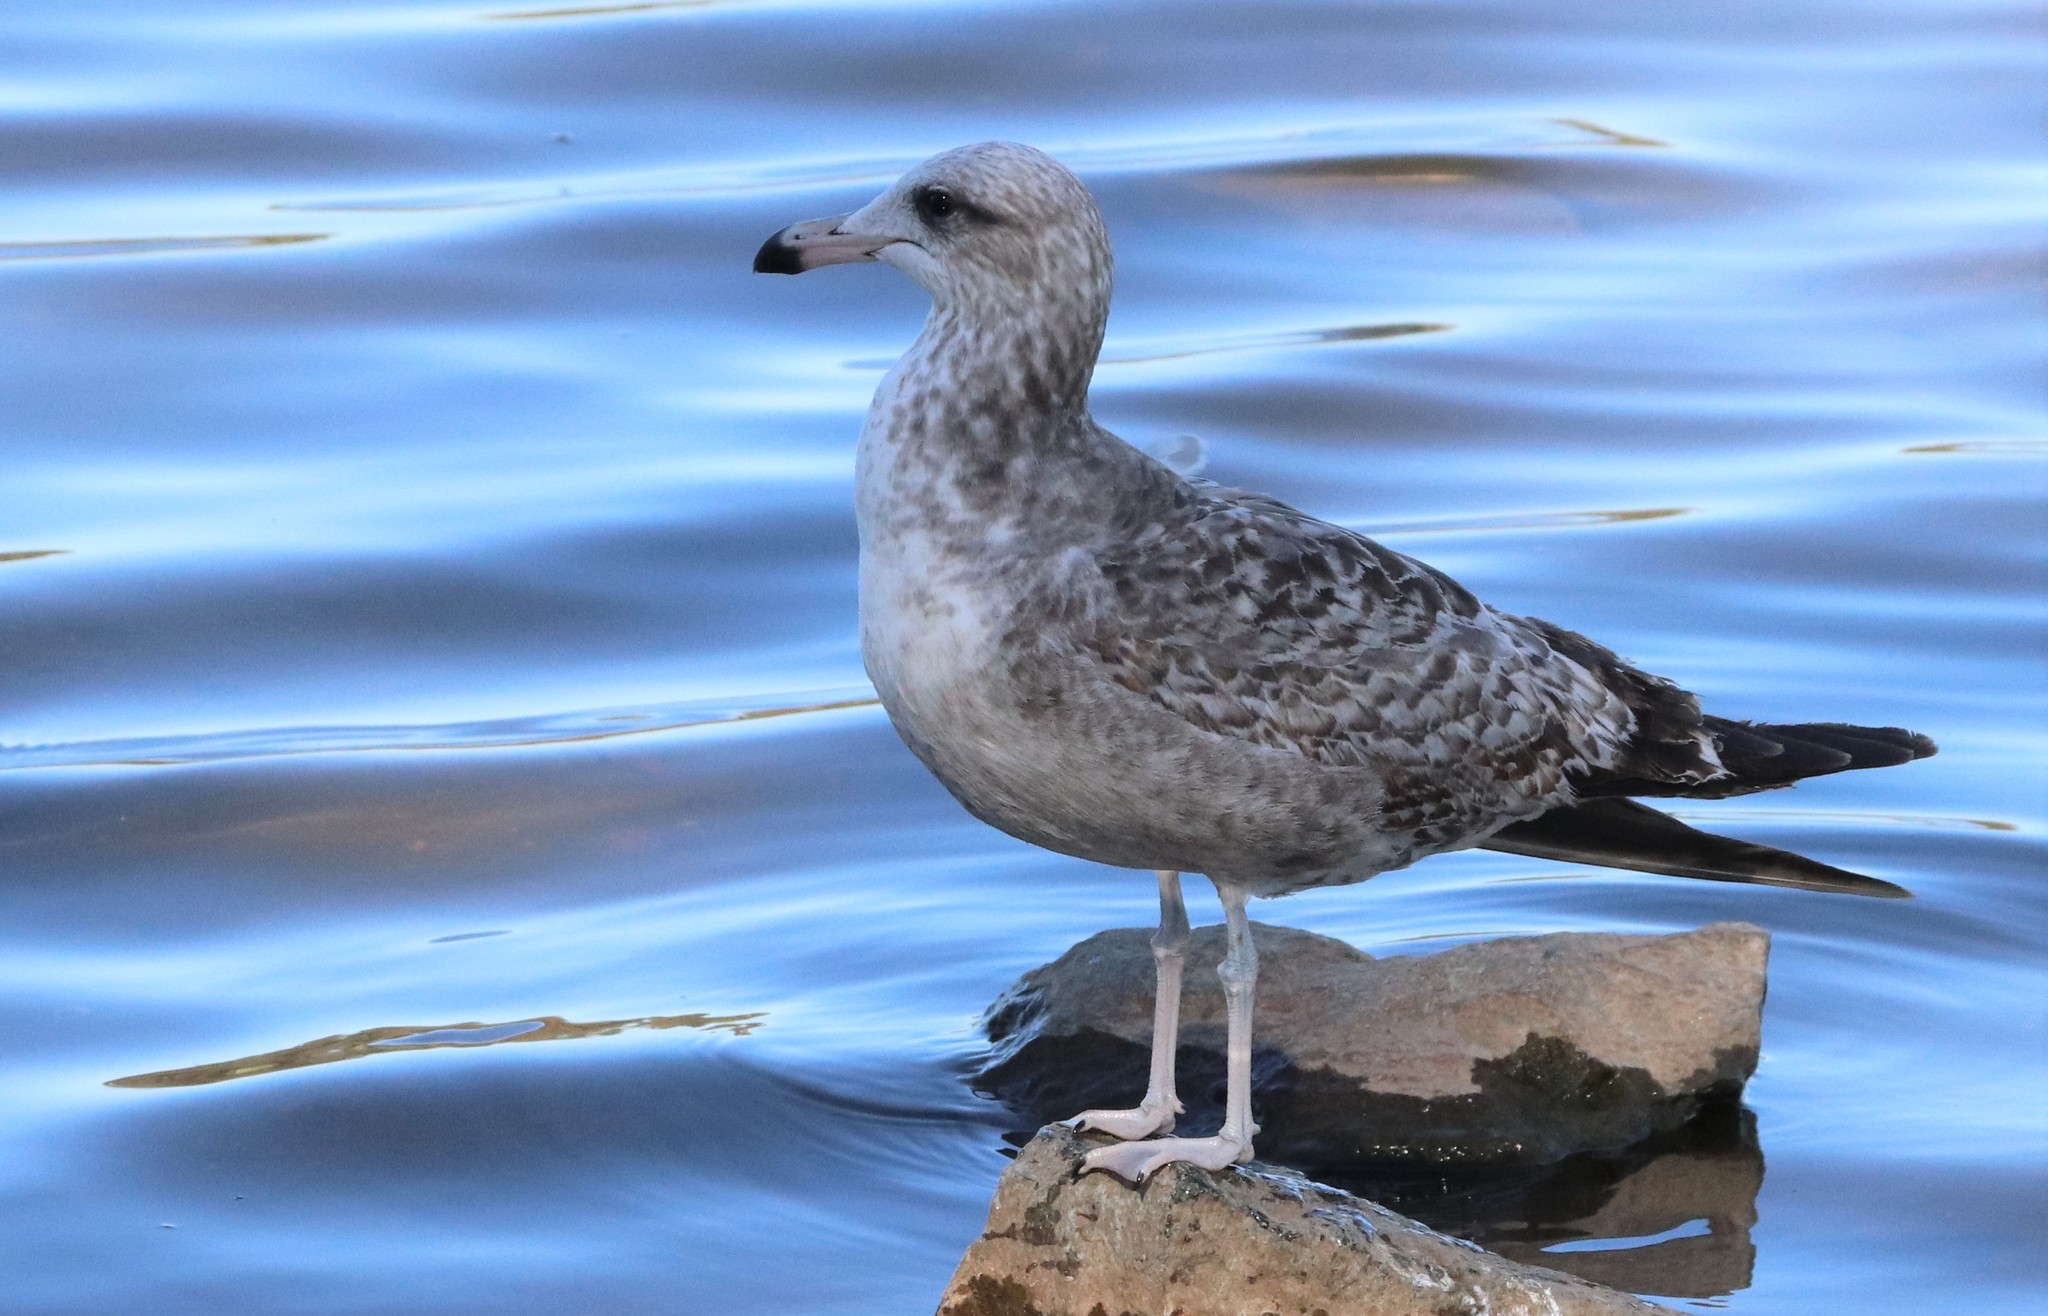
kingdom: Animalia
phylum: Chordata
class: Aves
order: Charadriiformes
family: Laridae
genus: Larus
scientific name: Larus californicus
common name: California gull
